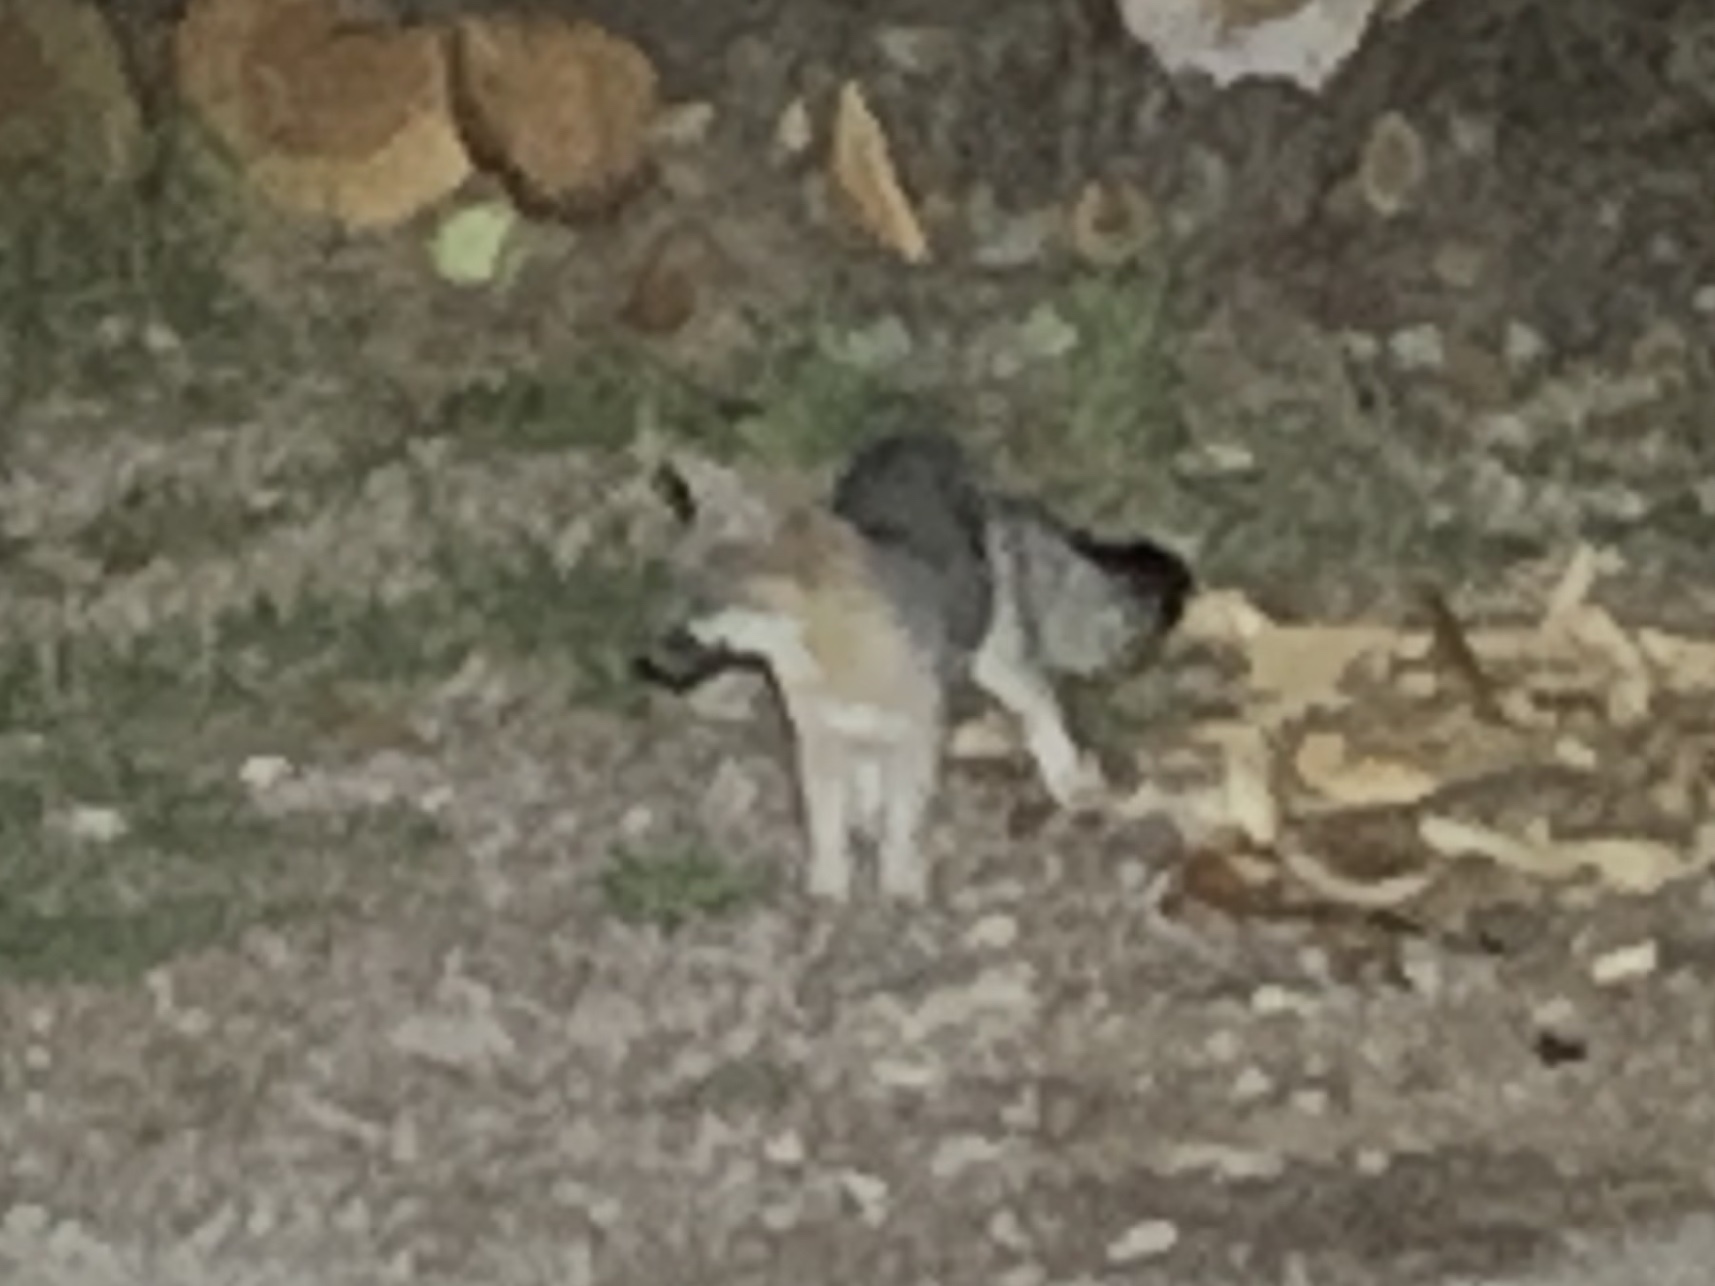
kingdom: Animalia
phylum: Chordata
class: Mammalia
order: Carnivora
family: Canidae
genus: Urocyon
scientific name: Urocyon cinereoargenteus
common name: Gray fox
